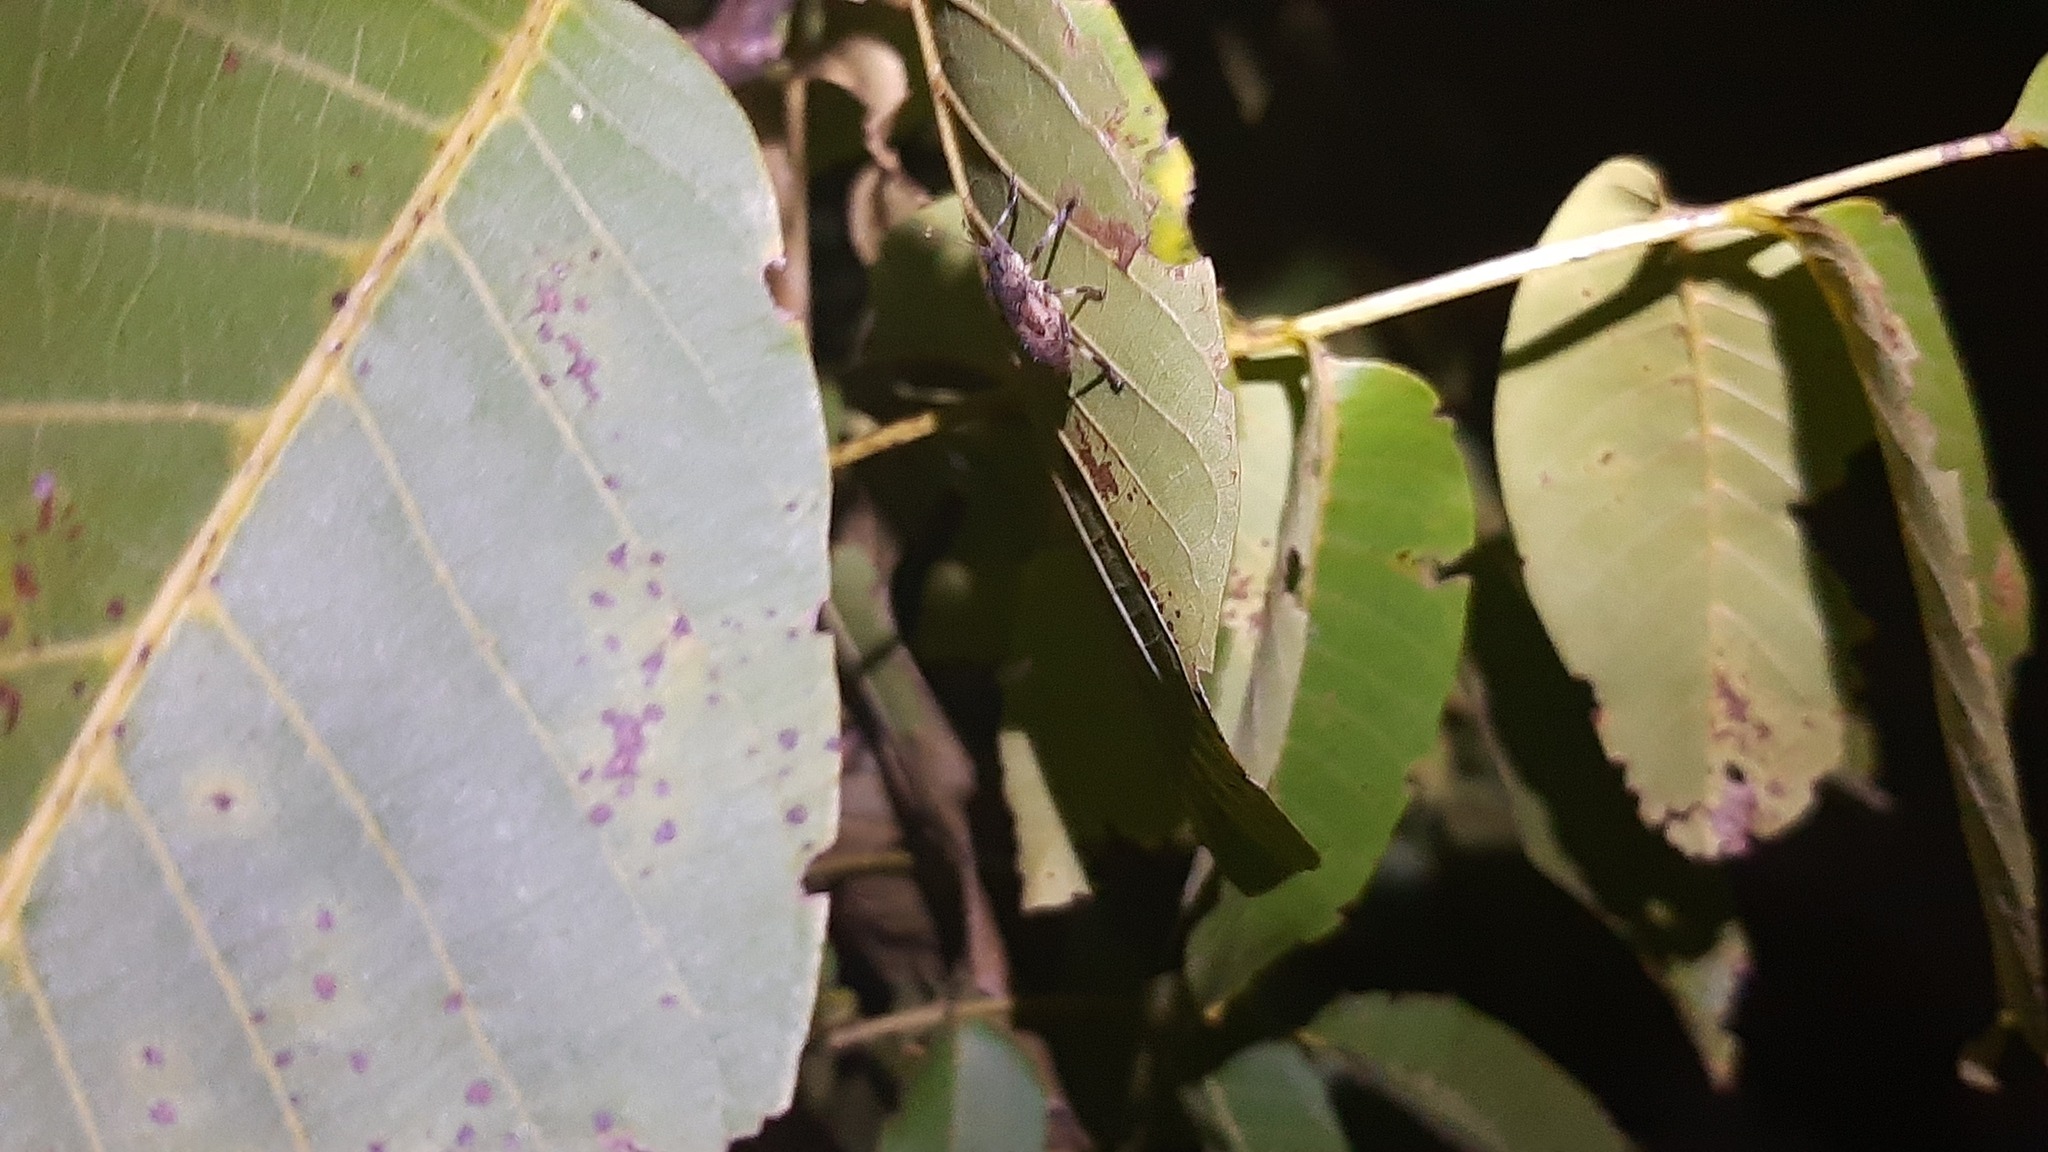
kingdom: Plantae
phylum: Tracheophyta
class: Magnoliopsida
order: Fagales
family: Juglandaceae
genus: Juglans
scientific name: Juglans regia
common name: Walnut
